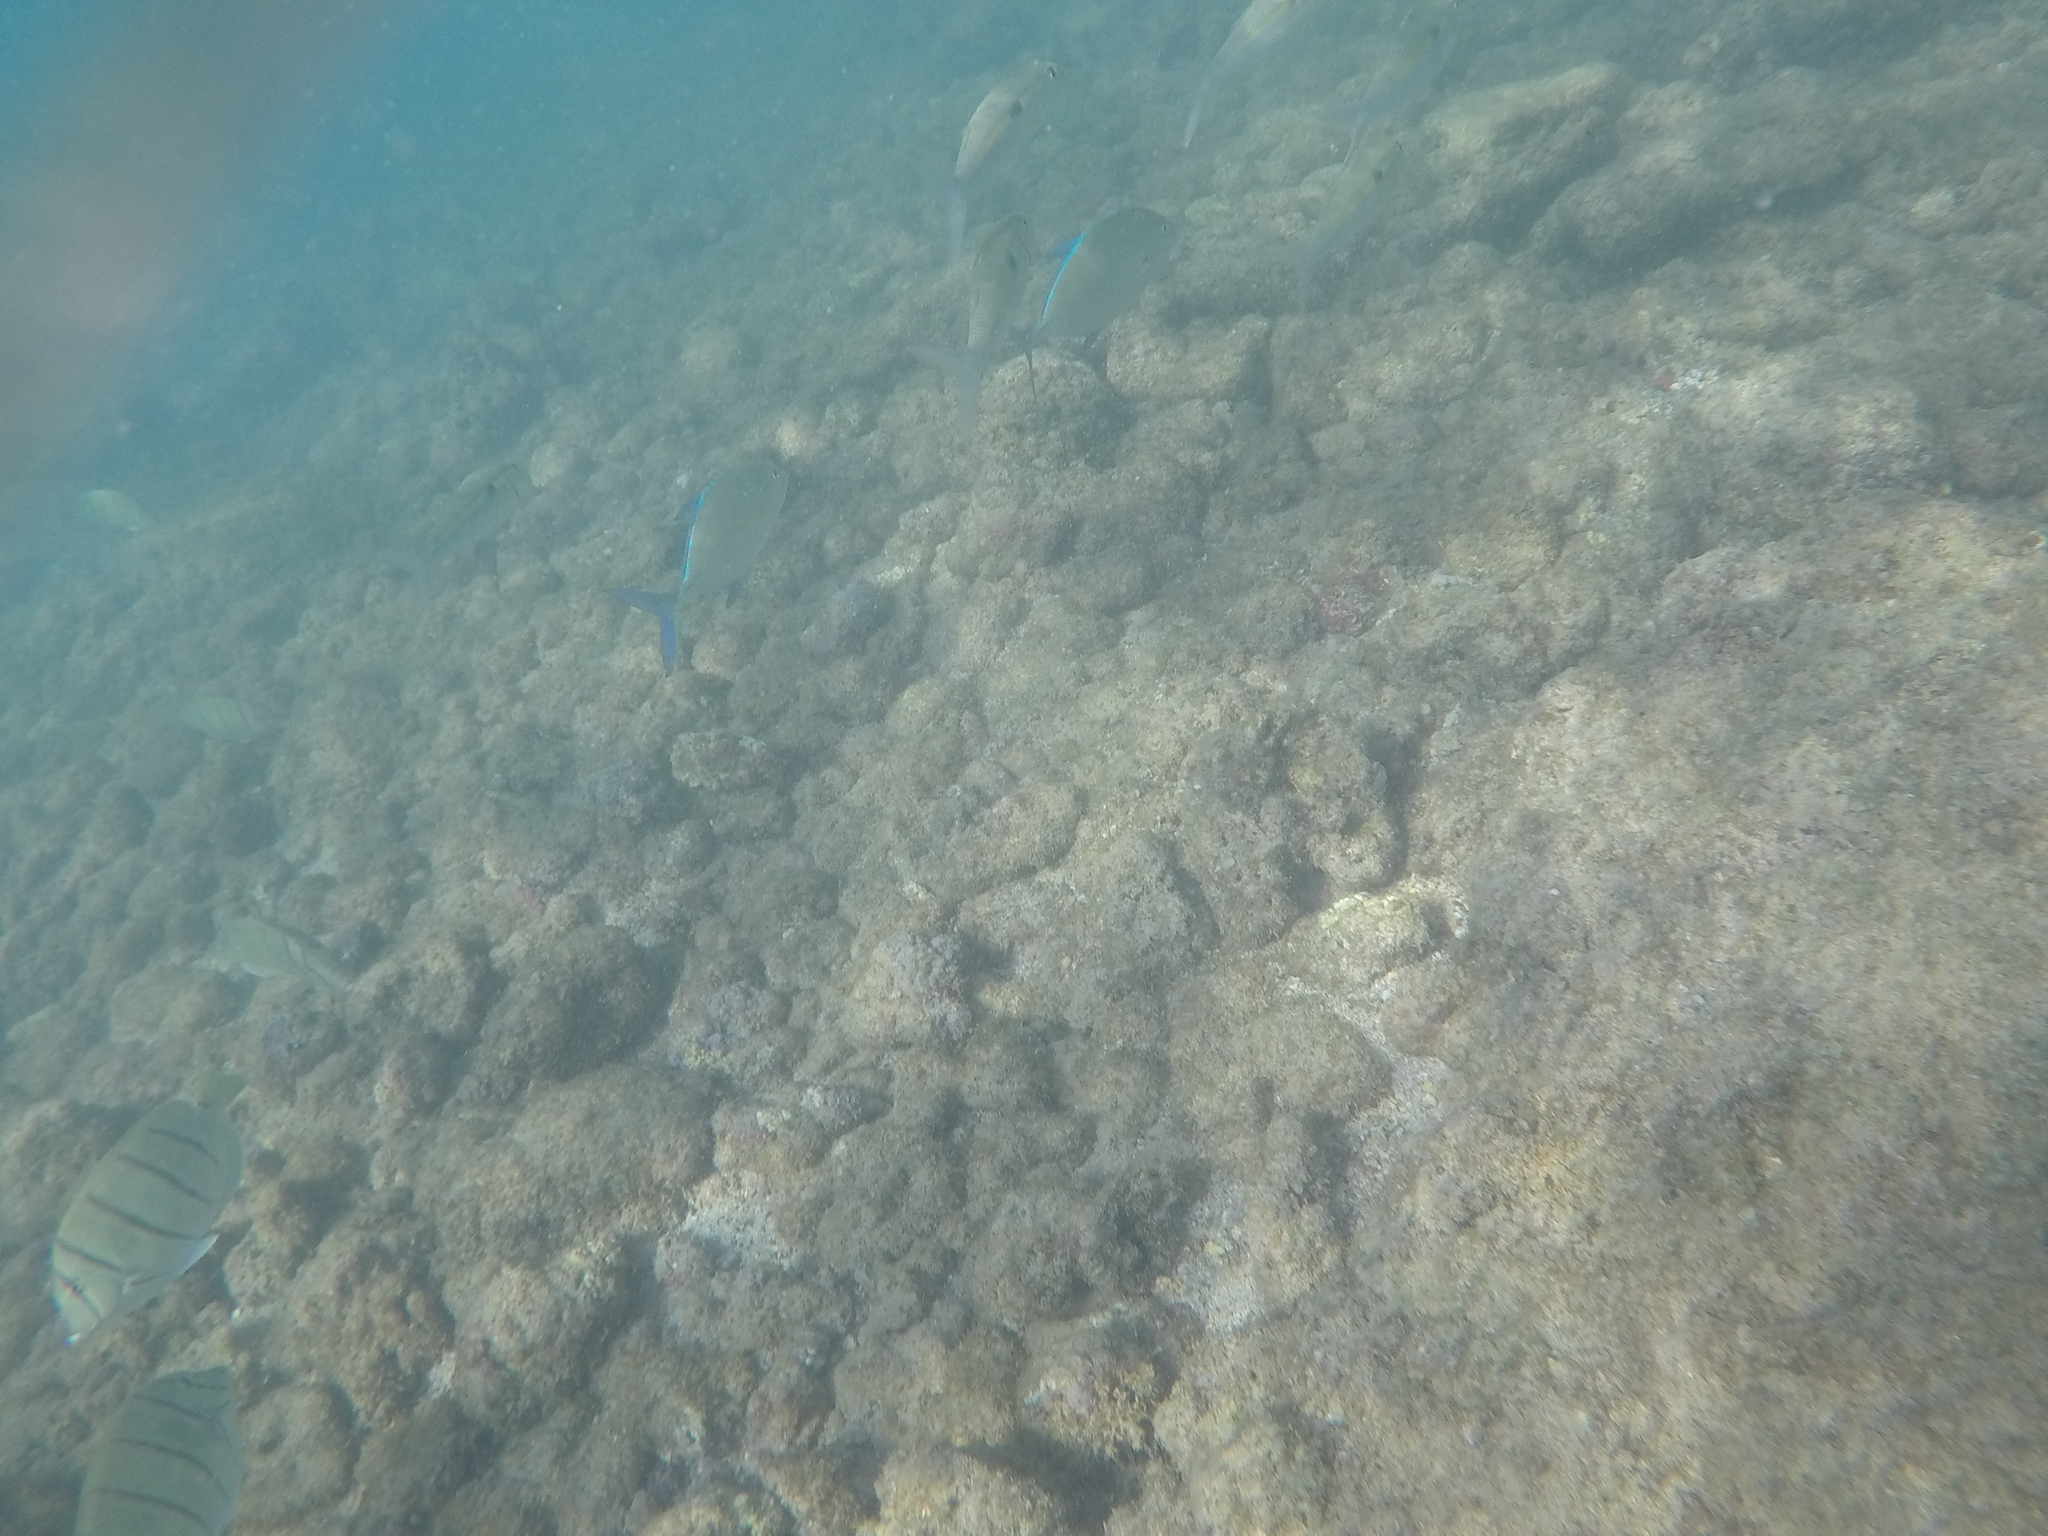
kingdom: Animalia
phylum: Chordata
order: Perciformes
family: Carangidae
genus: Caranx
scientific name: Caranx melampygus
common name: Bluefin trevally
